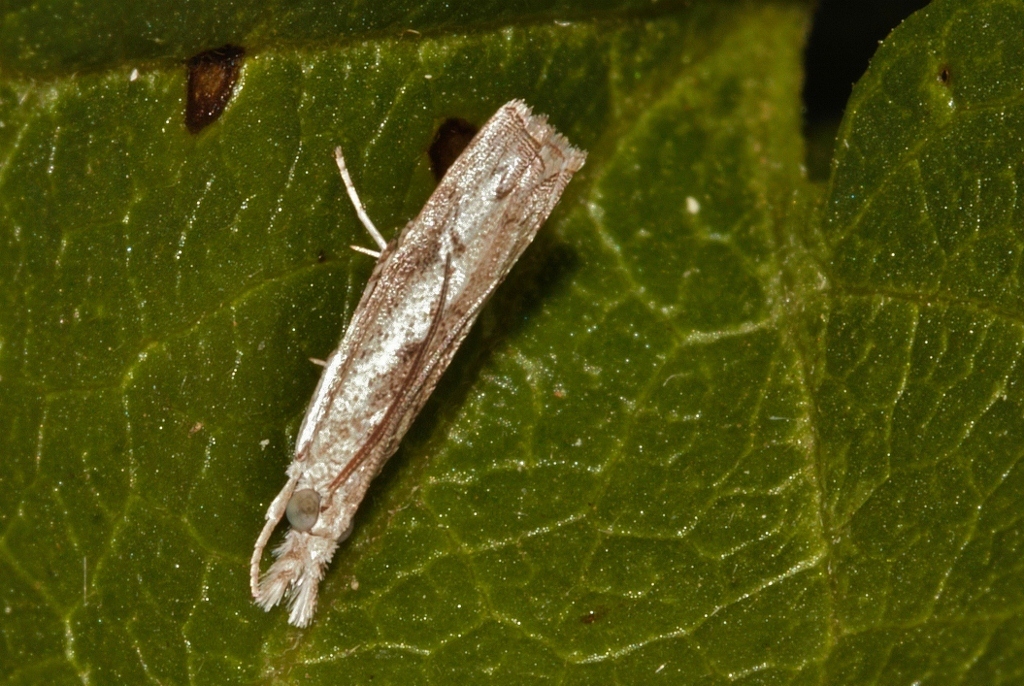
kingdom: Animalia
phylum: Arthropoda
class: Insecta
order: Lepidoptera
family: Crambidae
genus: Culladia
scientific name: Culladia achroellum
